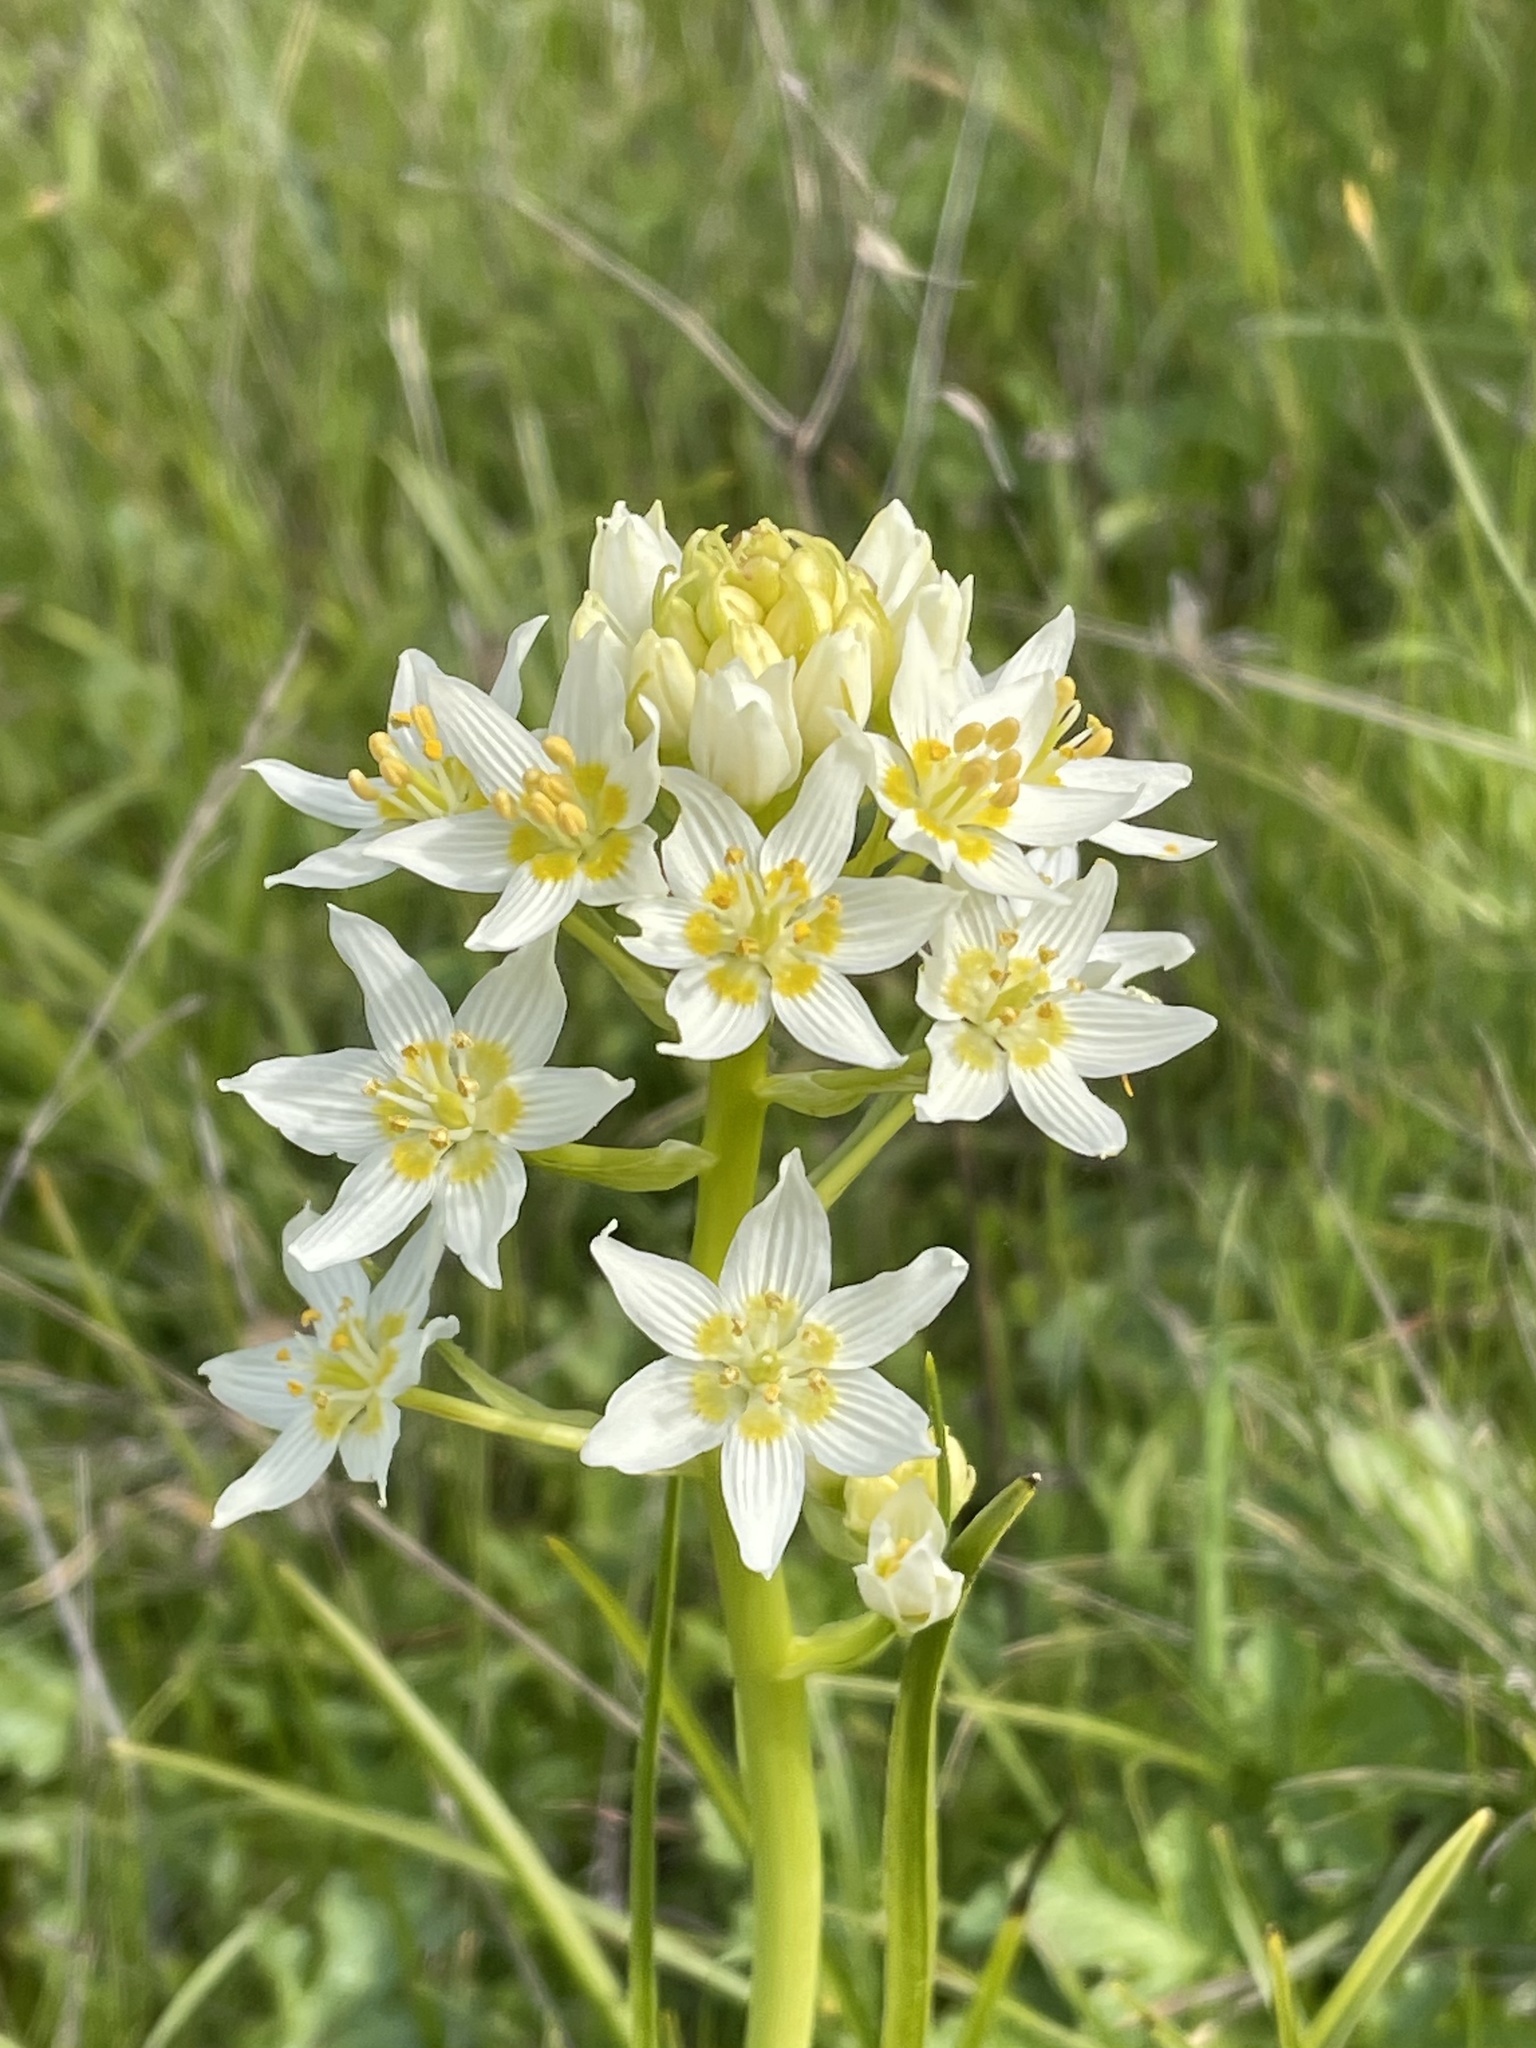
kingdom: Plantae
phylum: Tracheophyta
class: Liliopsida
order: Liliales
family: Melanthiaceae
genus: Toxicoscordion
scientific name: Toxicoscordion fremontii
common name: Fremont's death camas
